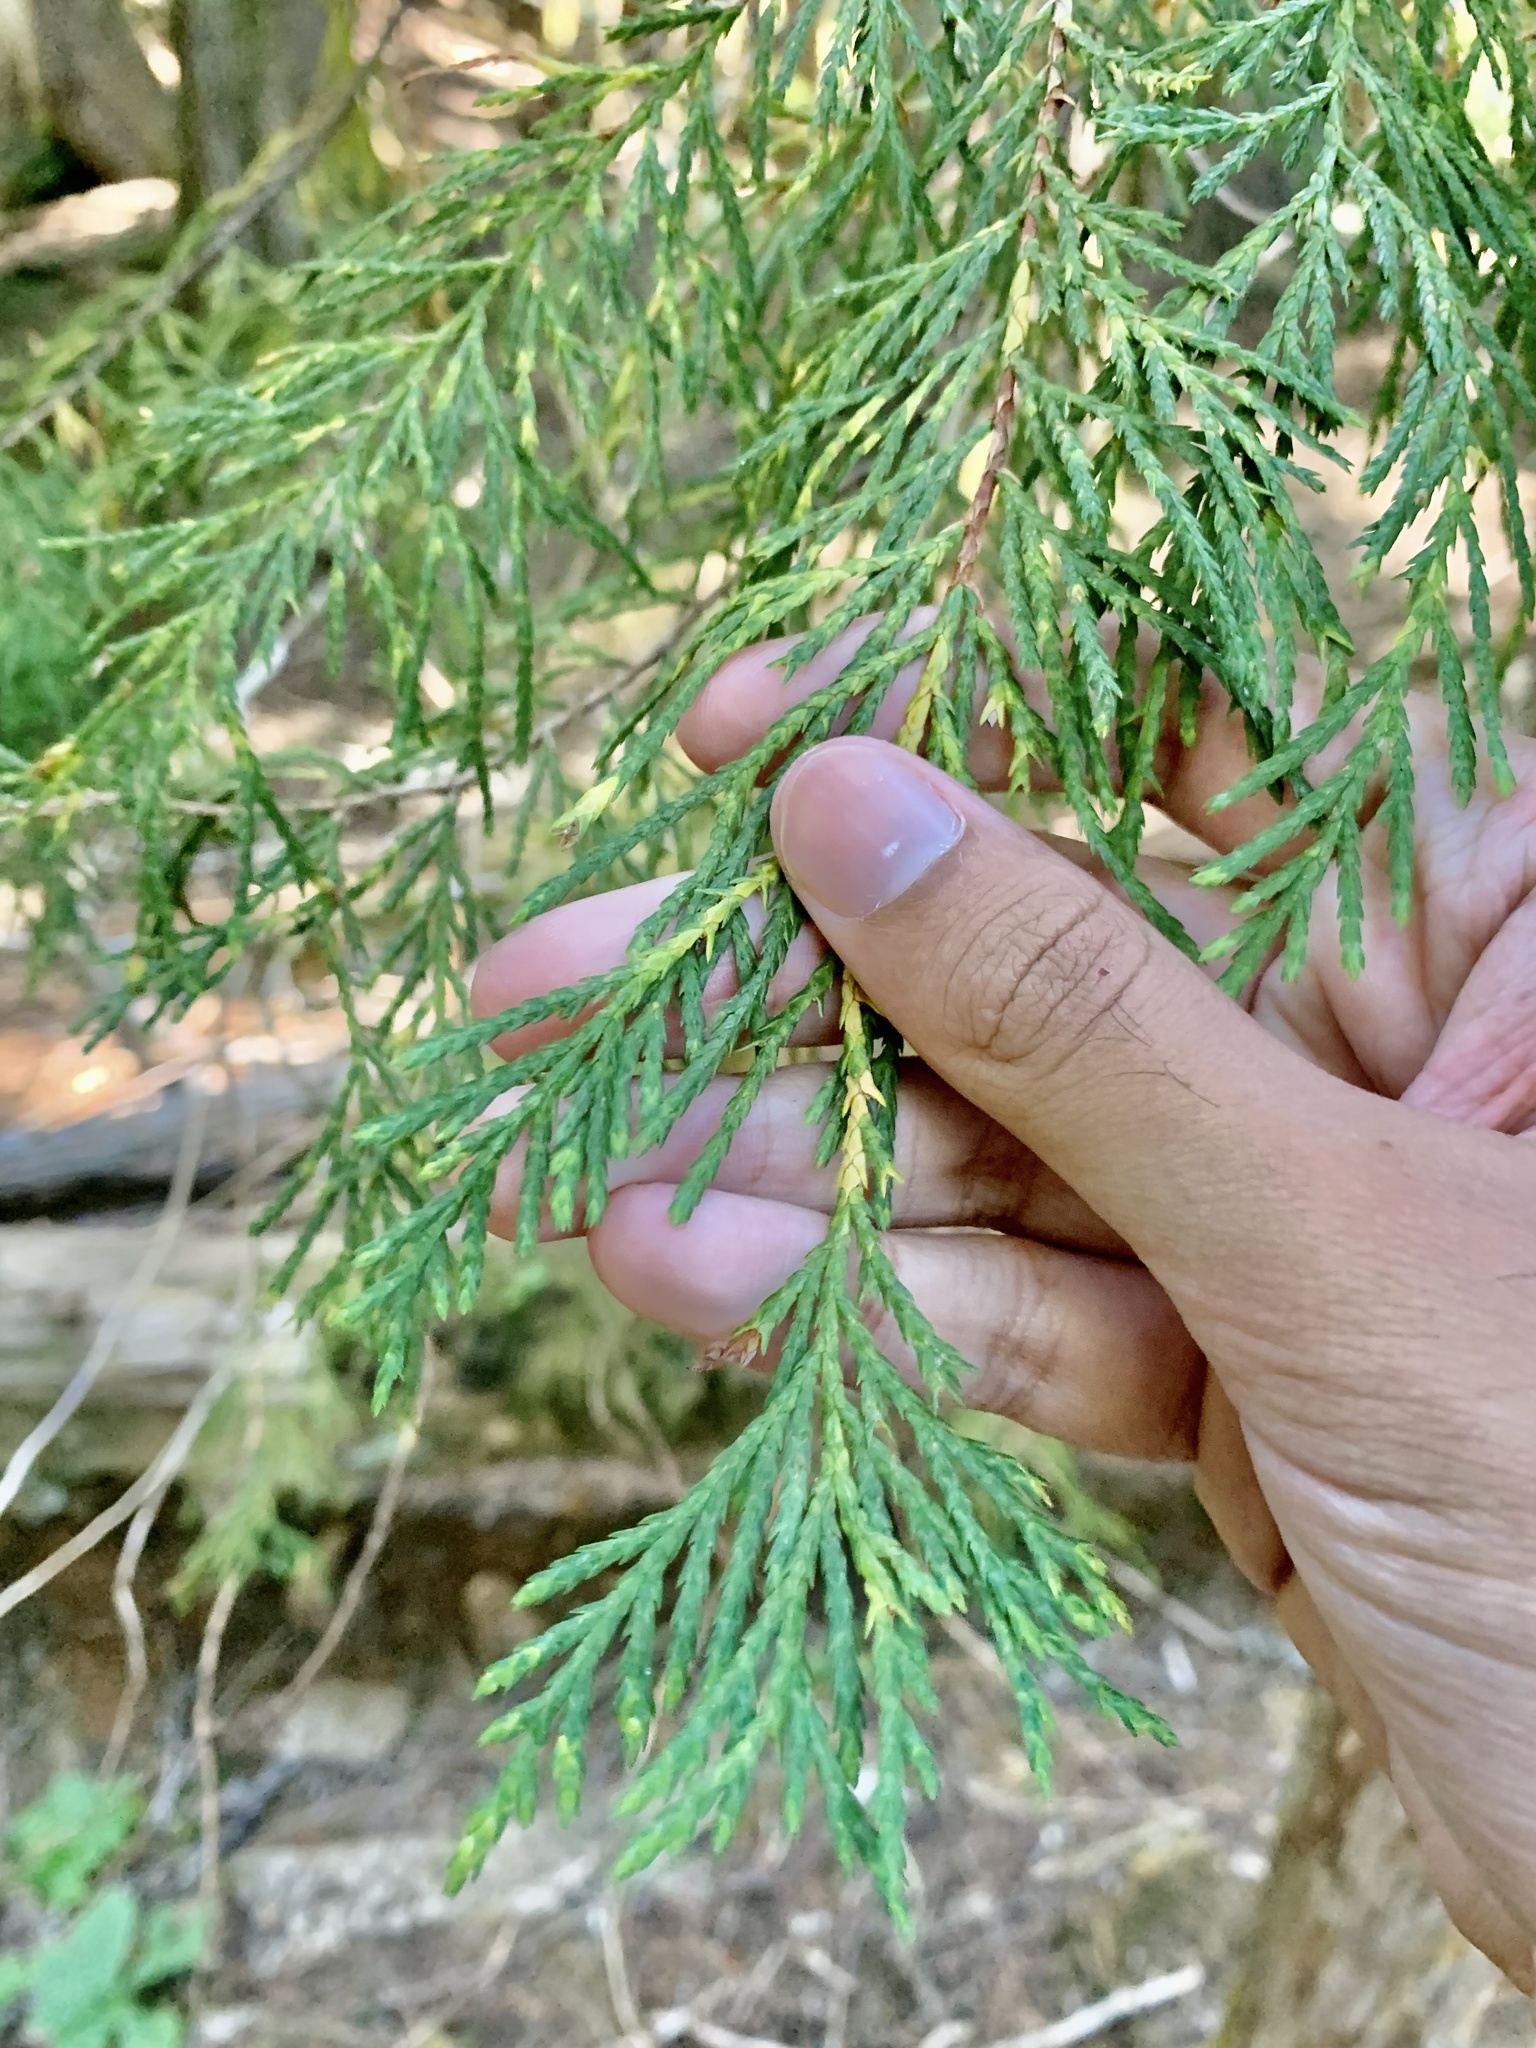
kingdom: Plantae
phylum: Tracheophyta
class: Pinopsida
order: Pinales
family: Cupressaceae
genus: Xanthocyparis
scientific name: Xanthocyparis nootkatensis
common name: Nootka cypress
